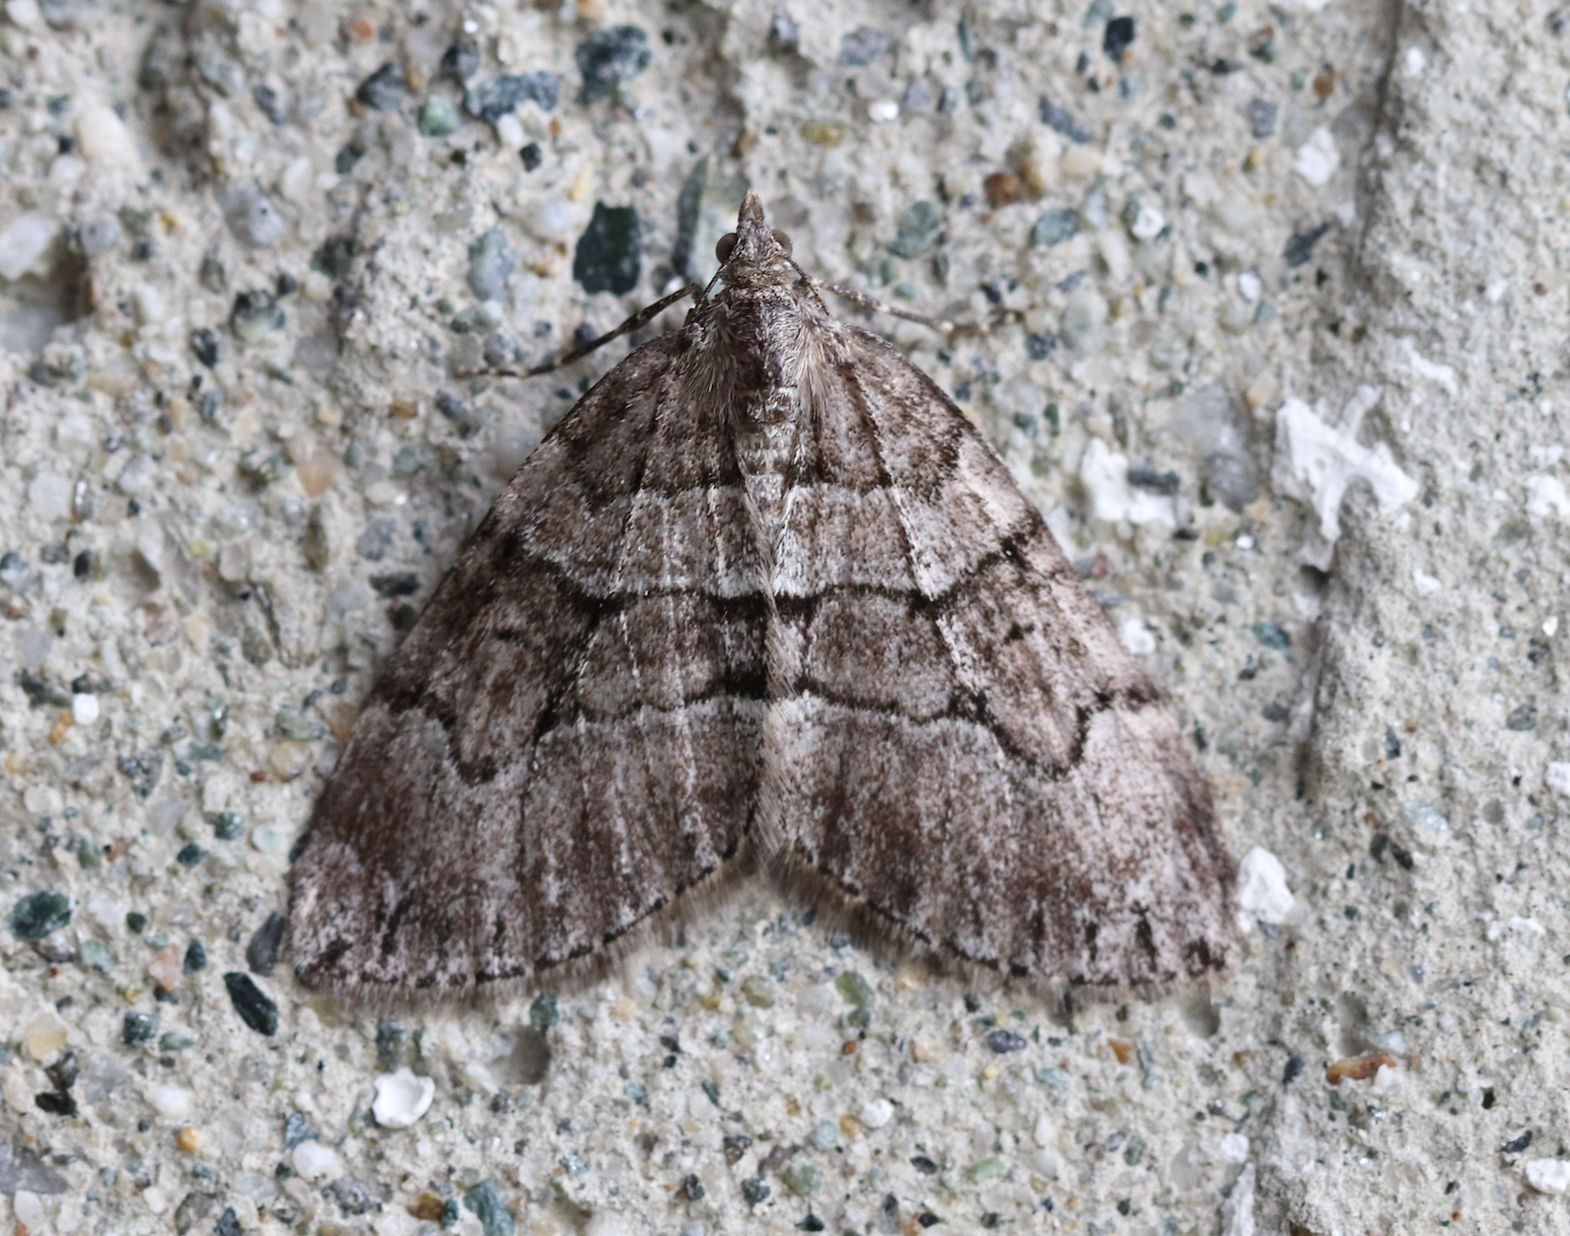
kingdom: Animalia
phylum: Arthropoda
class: Insecta
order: Lepidoptera
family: Geometridae
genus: Thera
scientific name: Thera cognata
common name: Chestnut-coloured carpet
